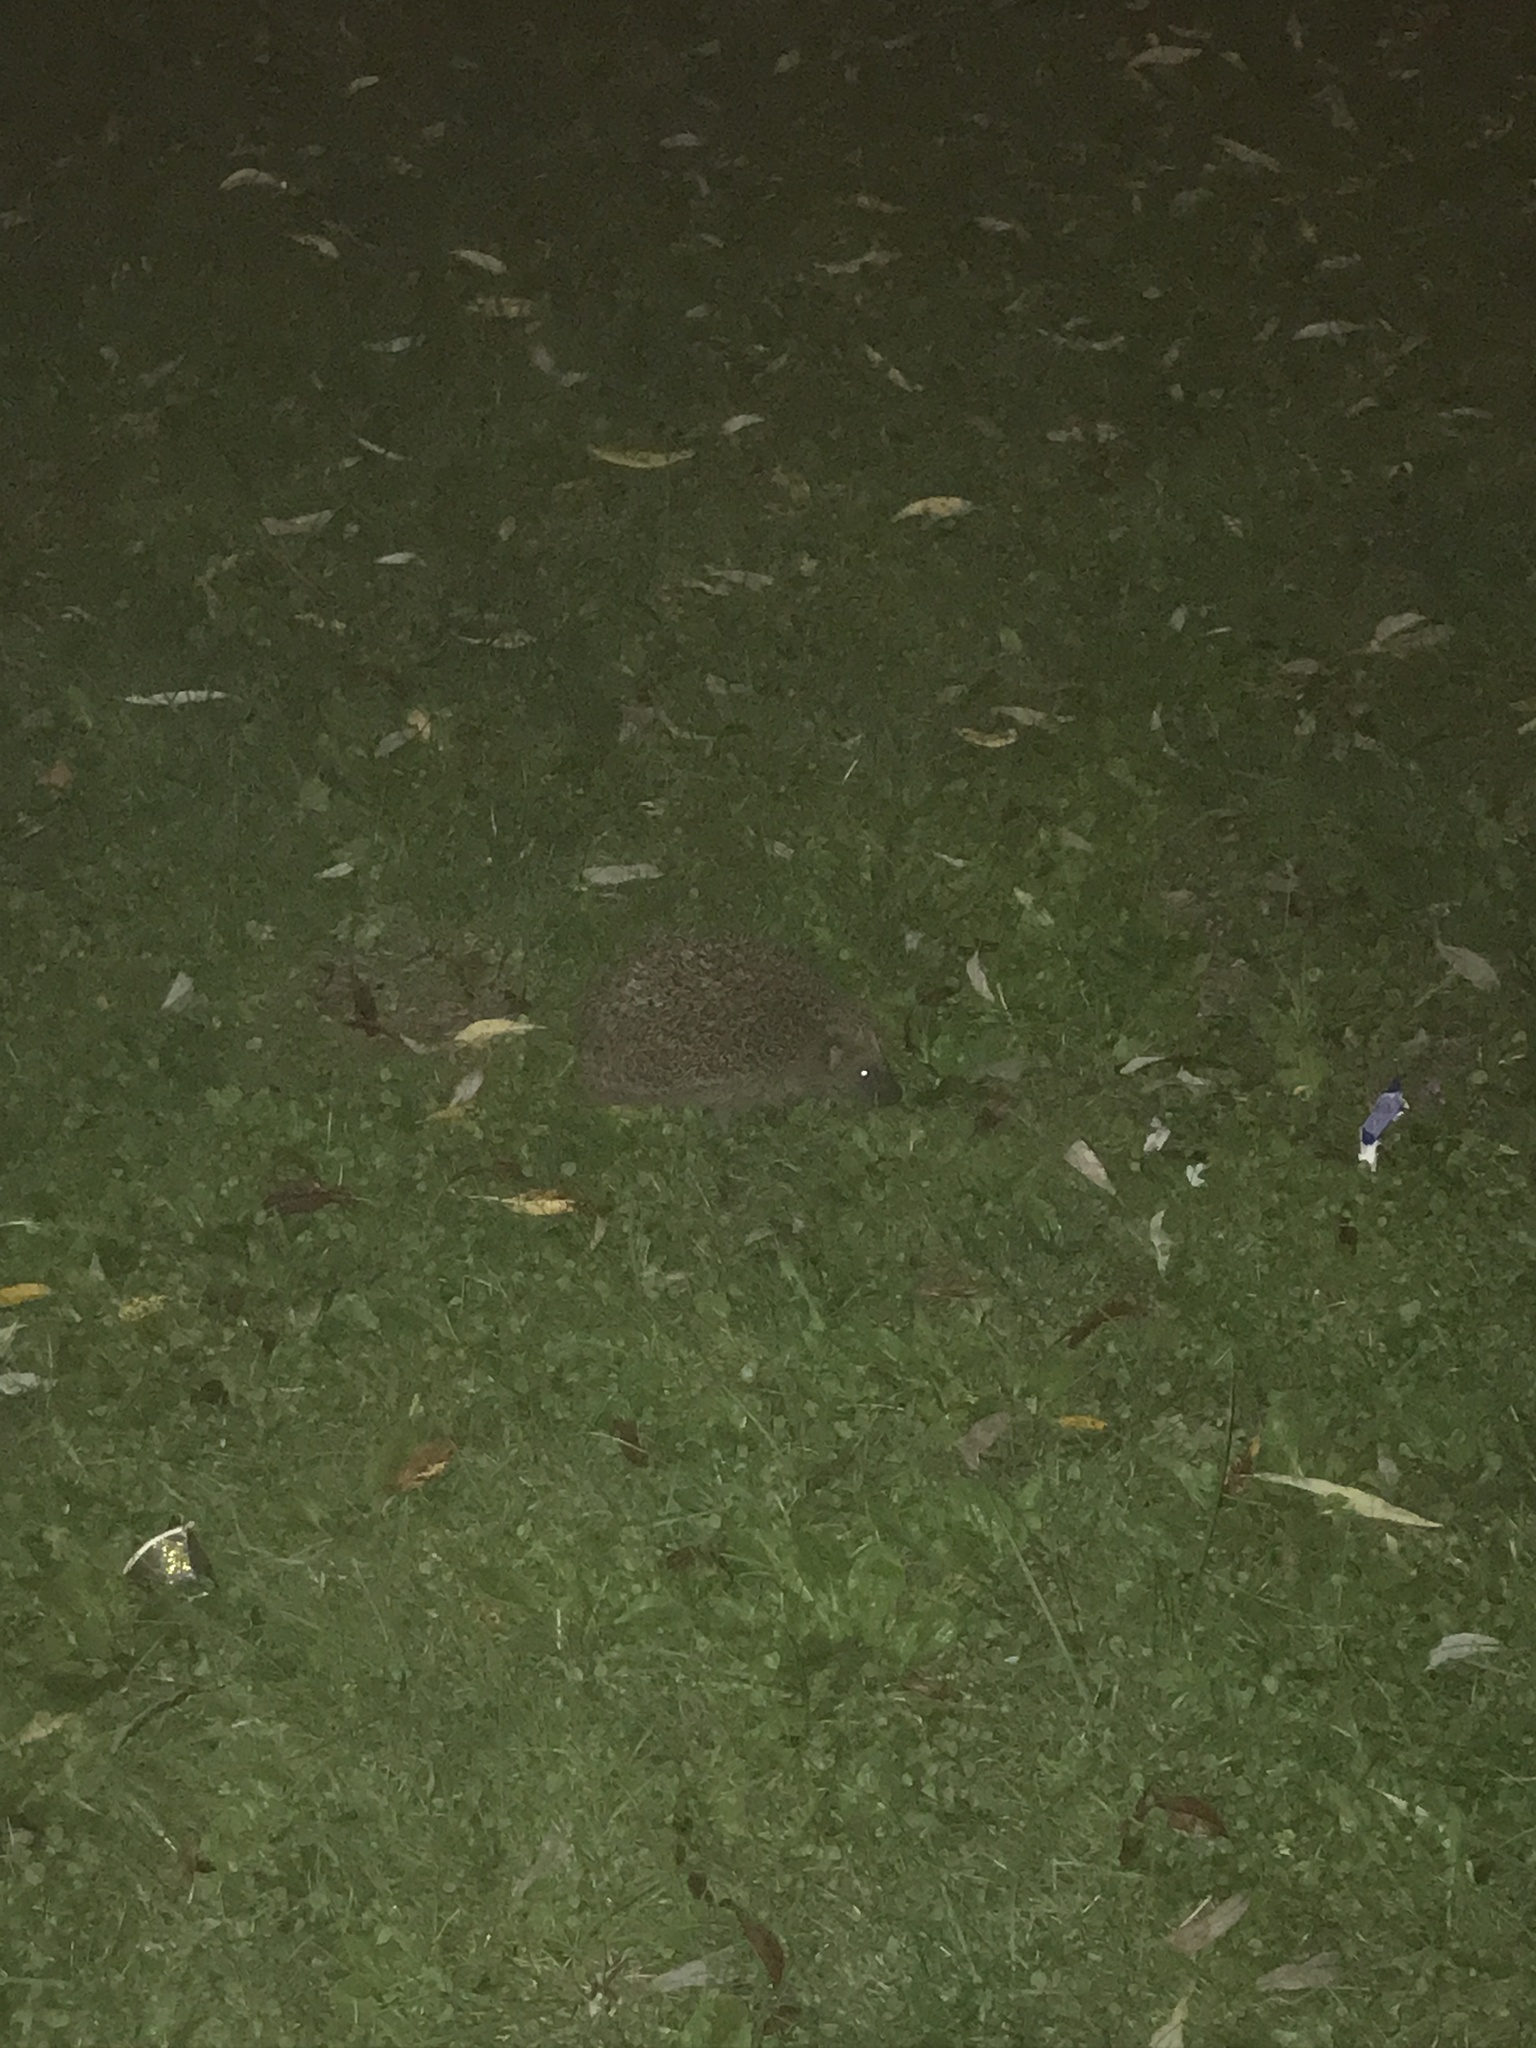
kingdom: Animalia
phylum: Chordata
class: Mammalia
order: Erinaceomorpha
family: Erinaceidae
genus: Erinaceus
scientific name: Erinaceus europaeus
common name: West european hedgehog
